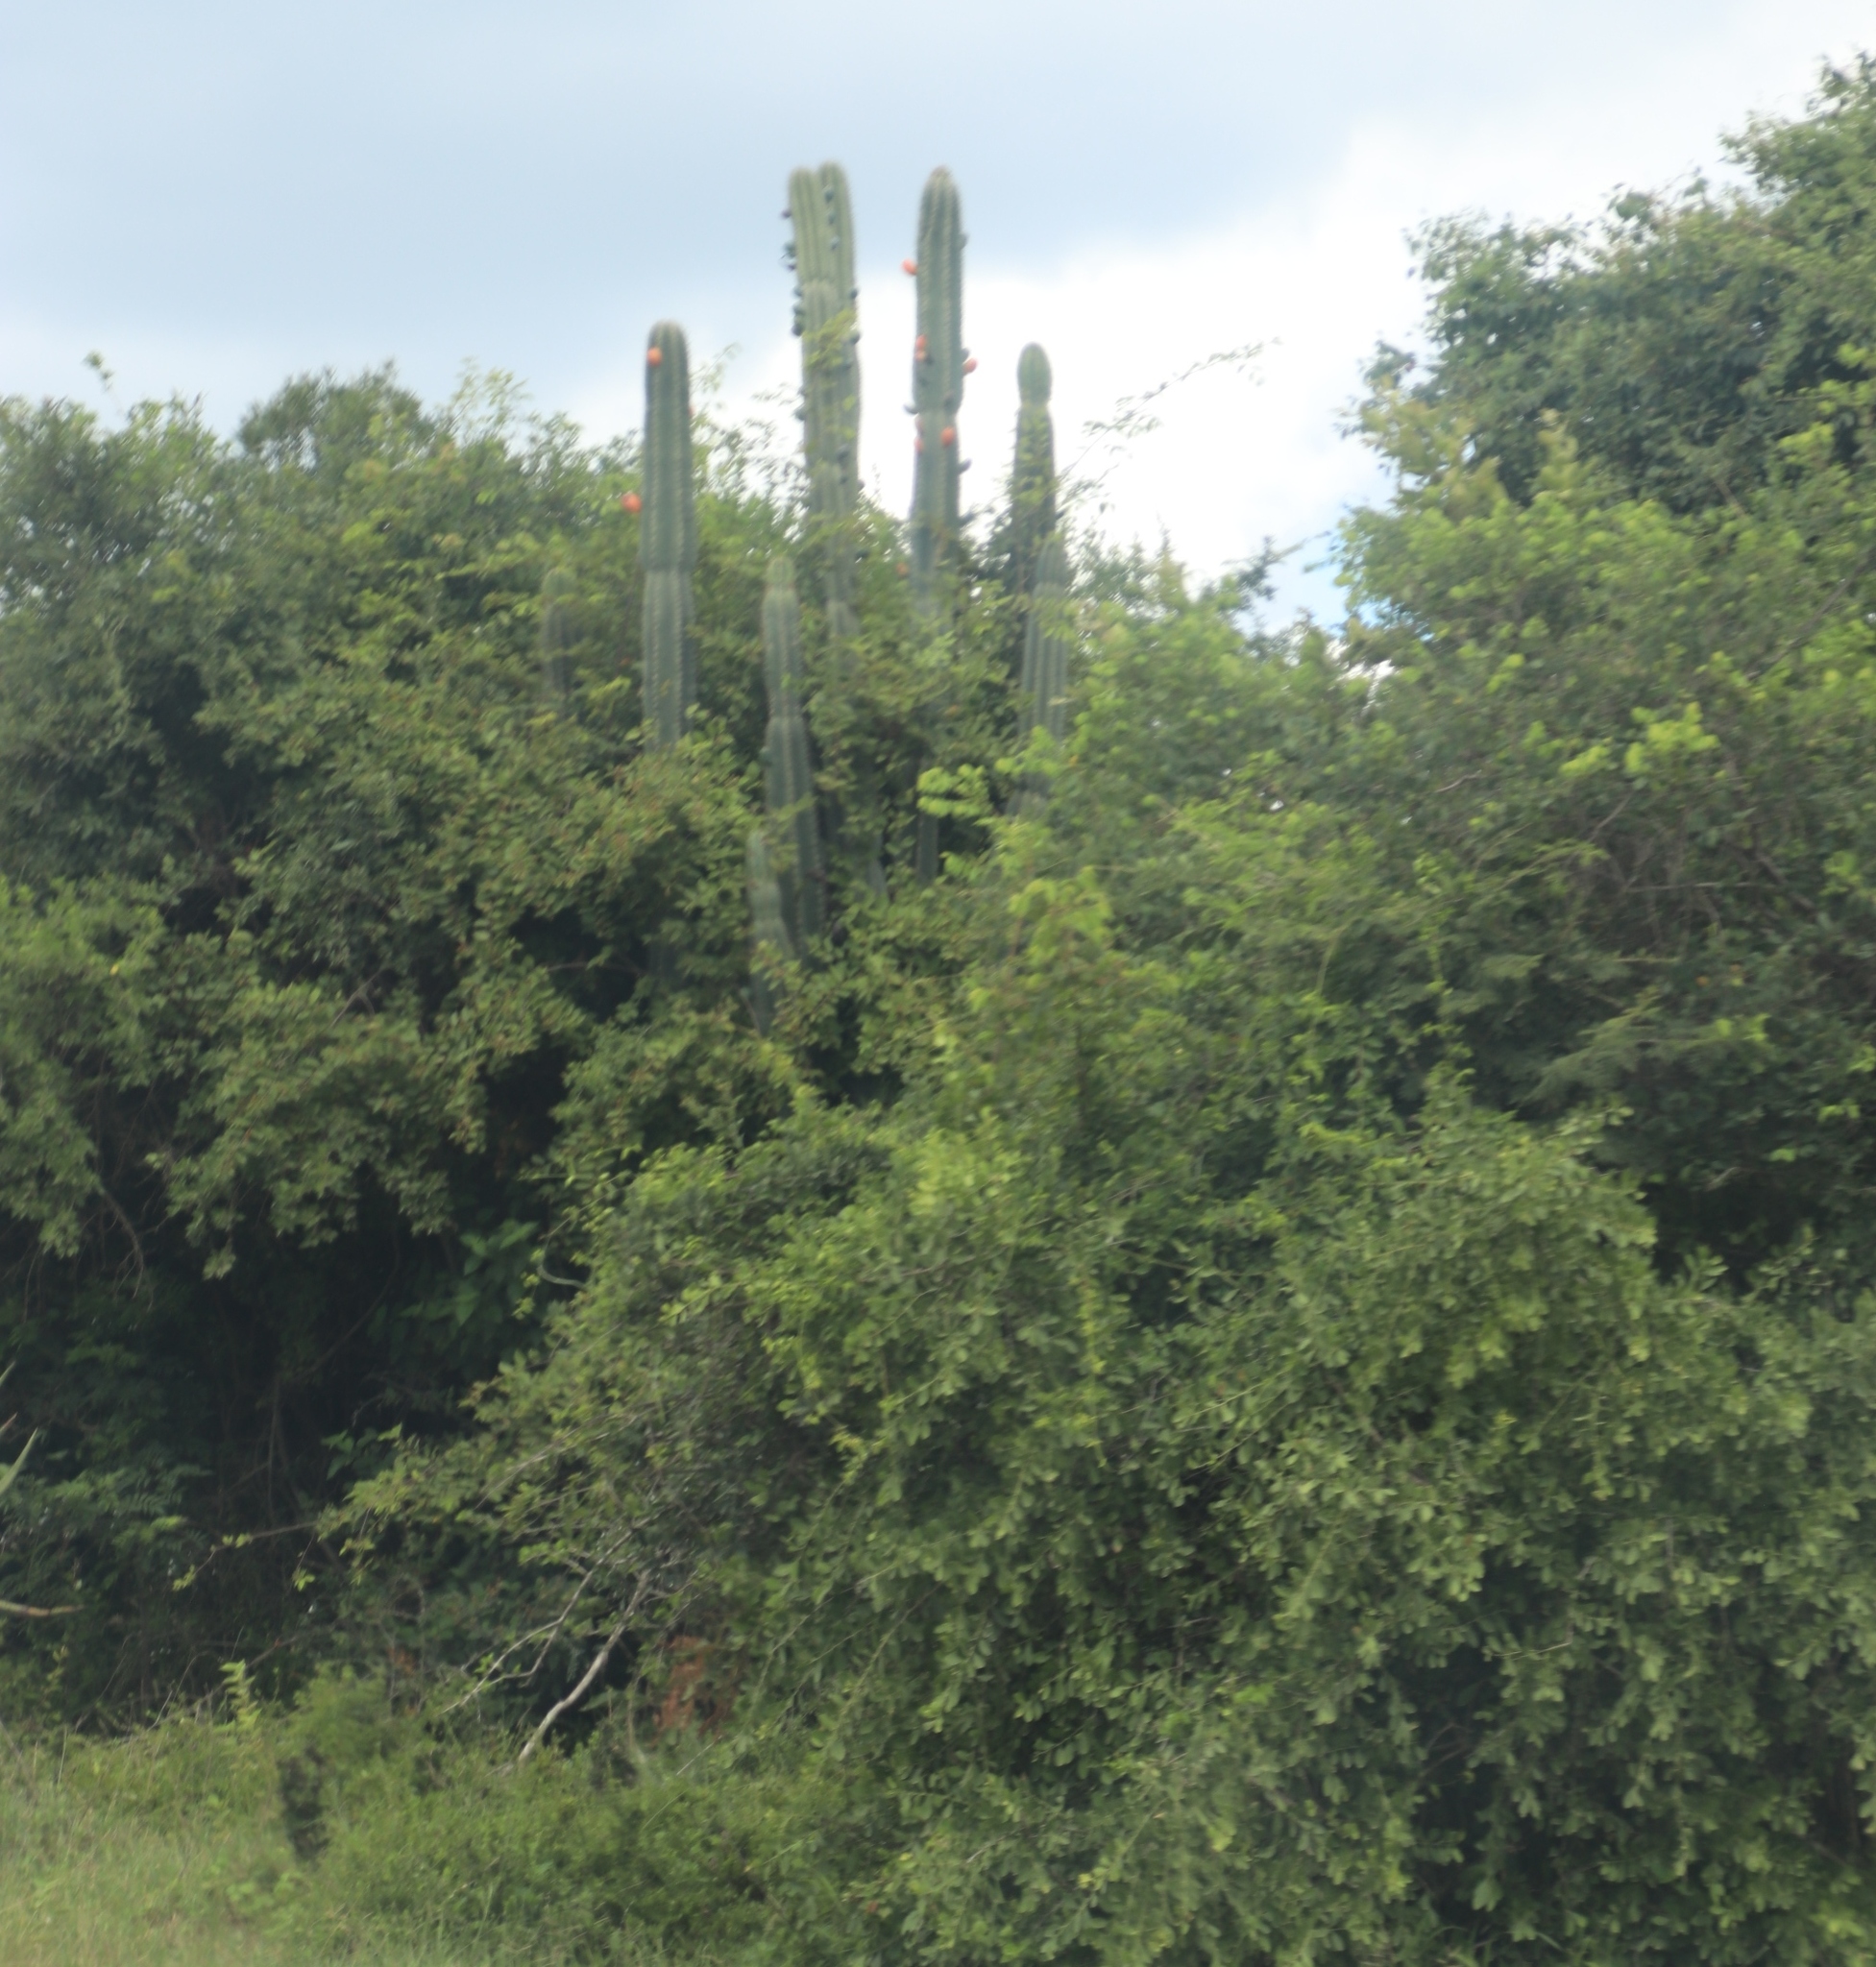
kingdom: Plantae
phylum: Tracheophyta
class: Magnoliopsida
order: Caryophyllales
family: Cactaceae
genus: Cereus
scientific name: Cereus jamacaru
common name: Queen-of-the-night
